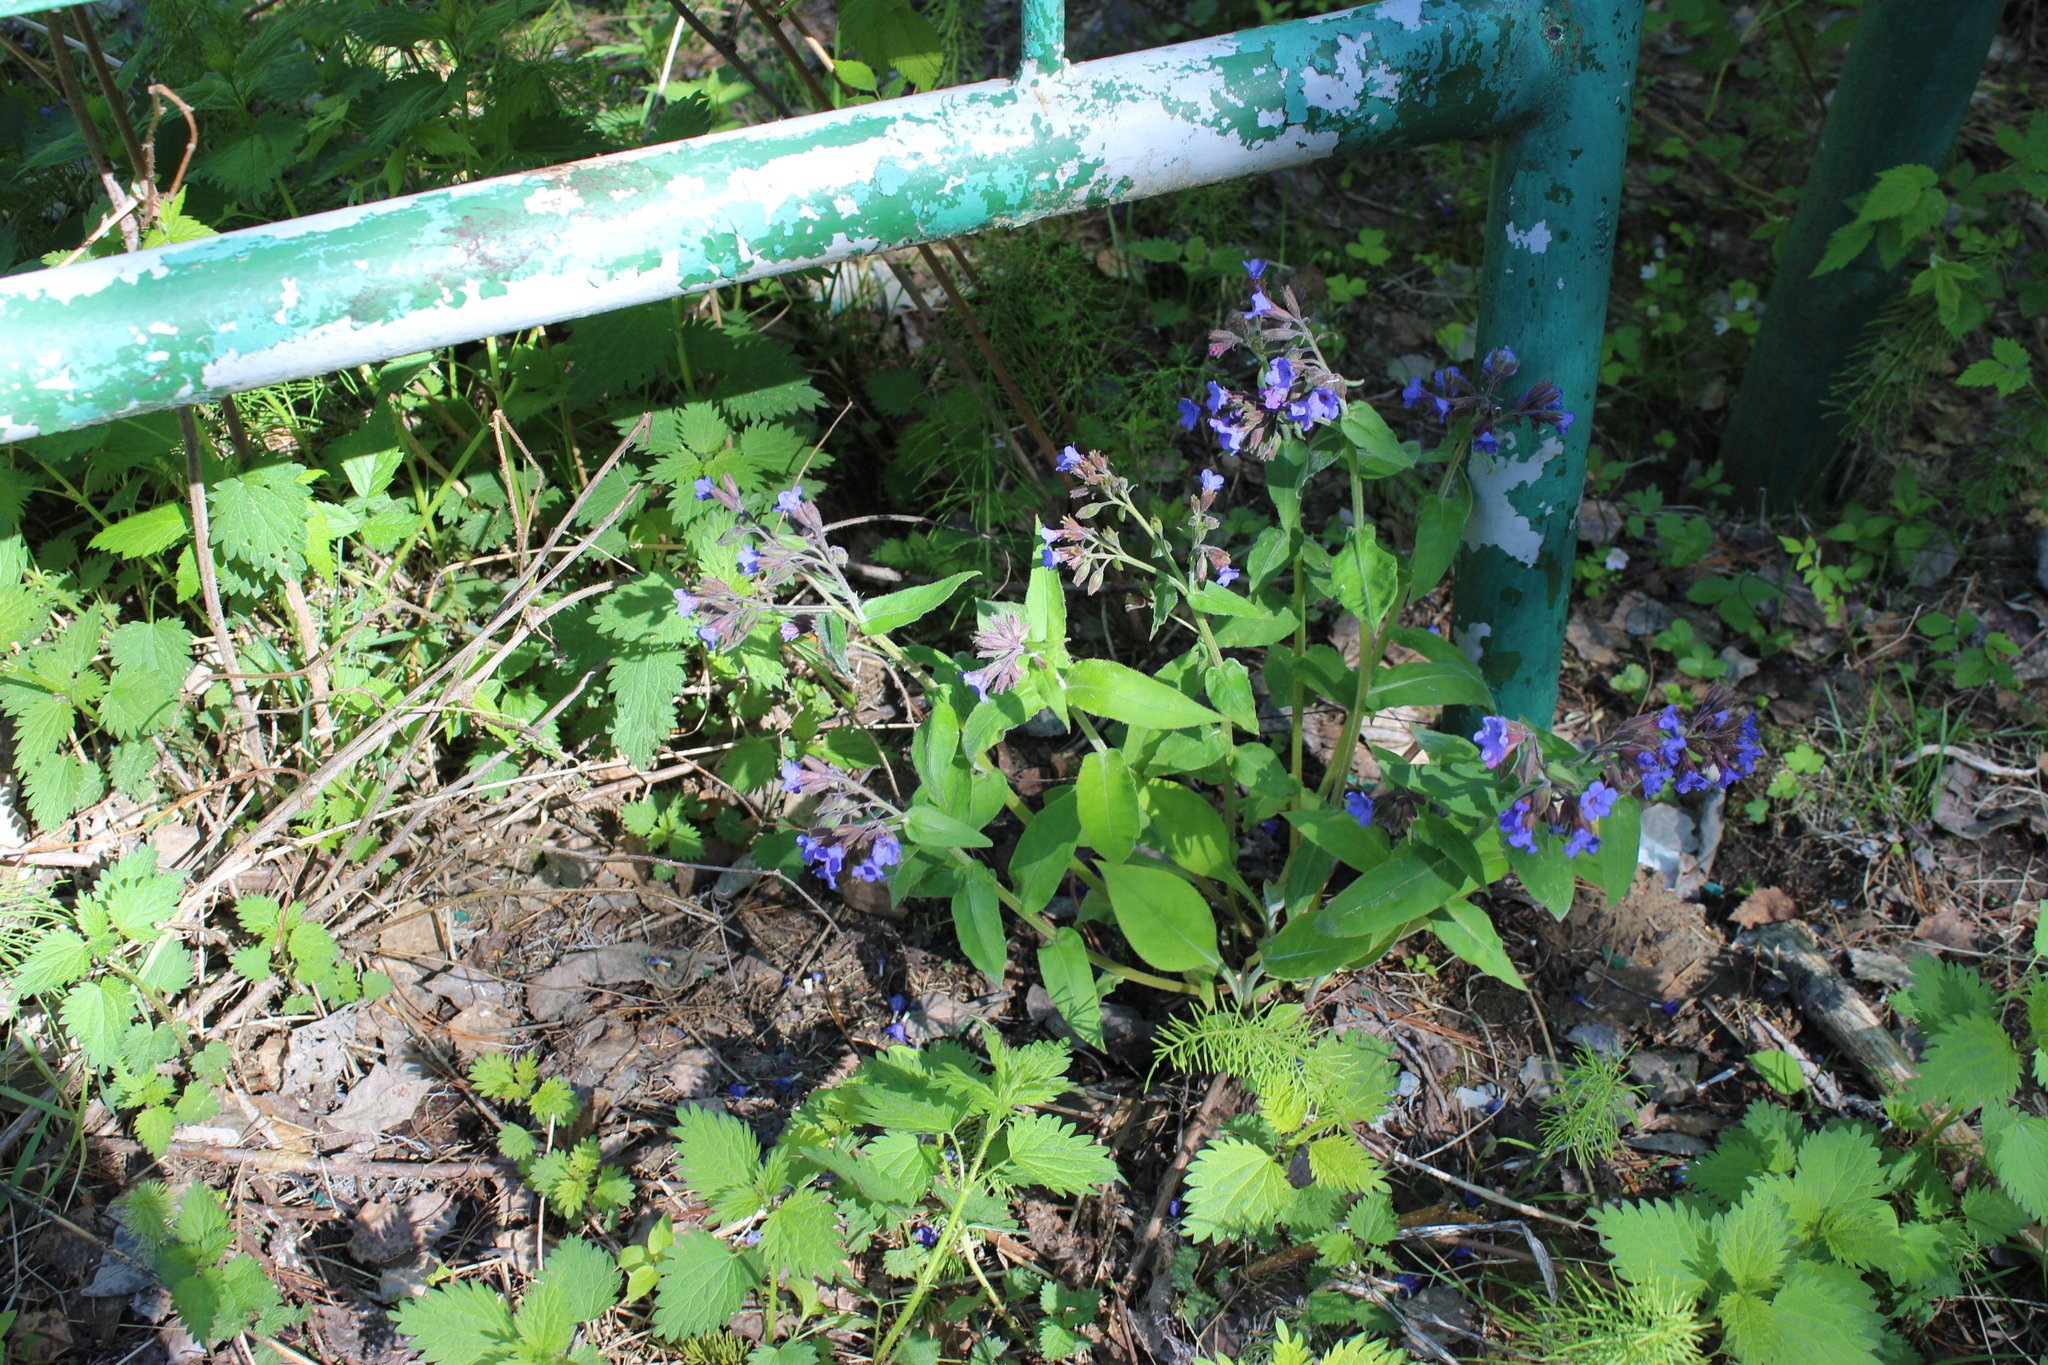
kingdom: Plantae
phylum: Tracheophyta
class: Magnoliopsida
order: Boraginales
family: Boraginaceae
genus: Pulmonaria
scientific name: Pulmonaria mollis
